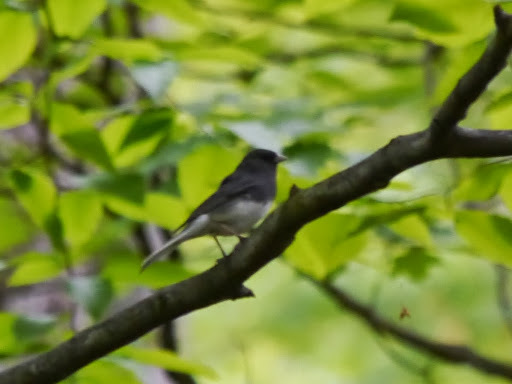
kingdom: Animalia
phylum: Chordata
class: Aves
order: Passeriformes
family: Passerellidae
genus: Junco
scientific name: Junco hyemalis
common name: Dark-eyed junco
